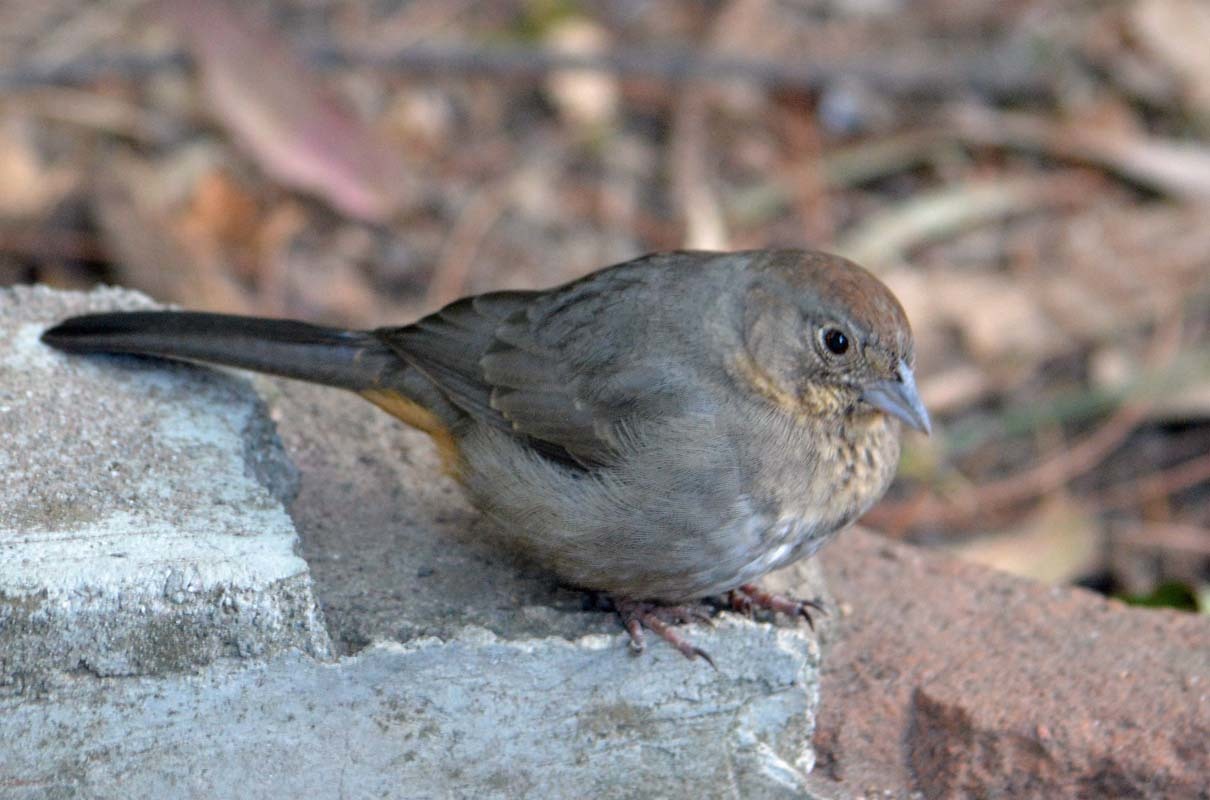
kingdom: Animalia
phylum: Chordata
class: Aves
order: Passeriformes
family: Passerellidae
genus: Melozone
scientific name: Melozone fusca
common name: Canyon towhee
